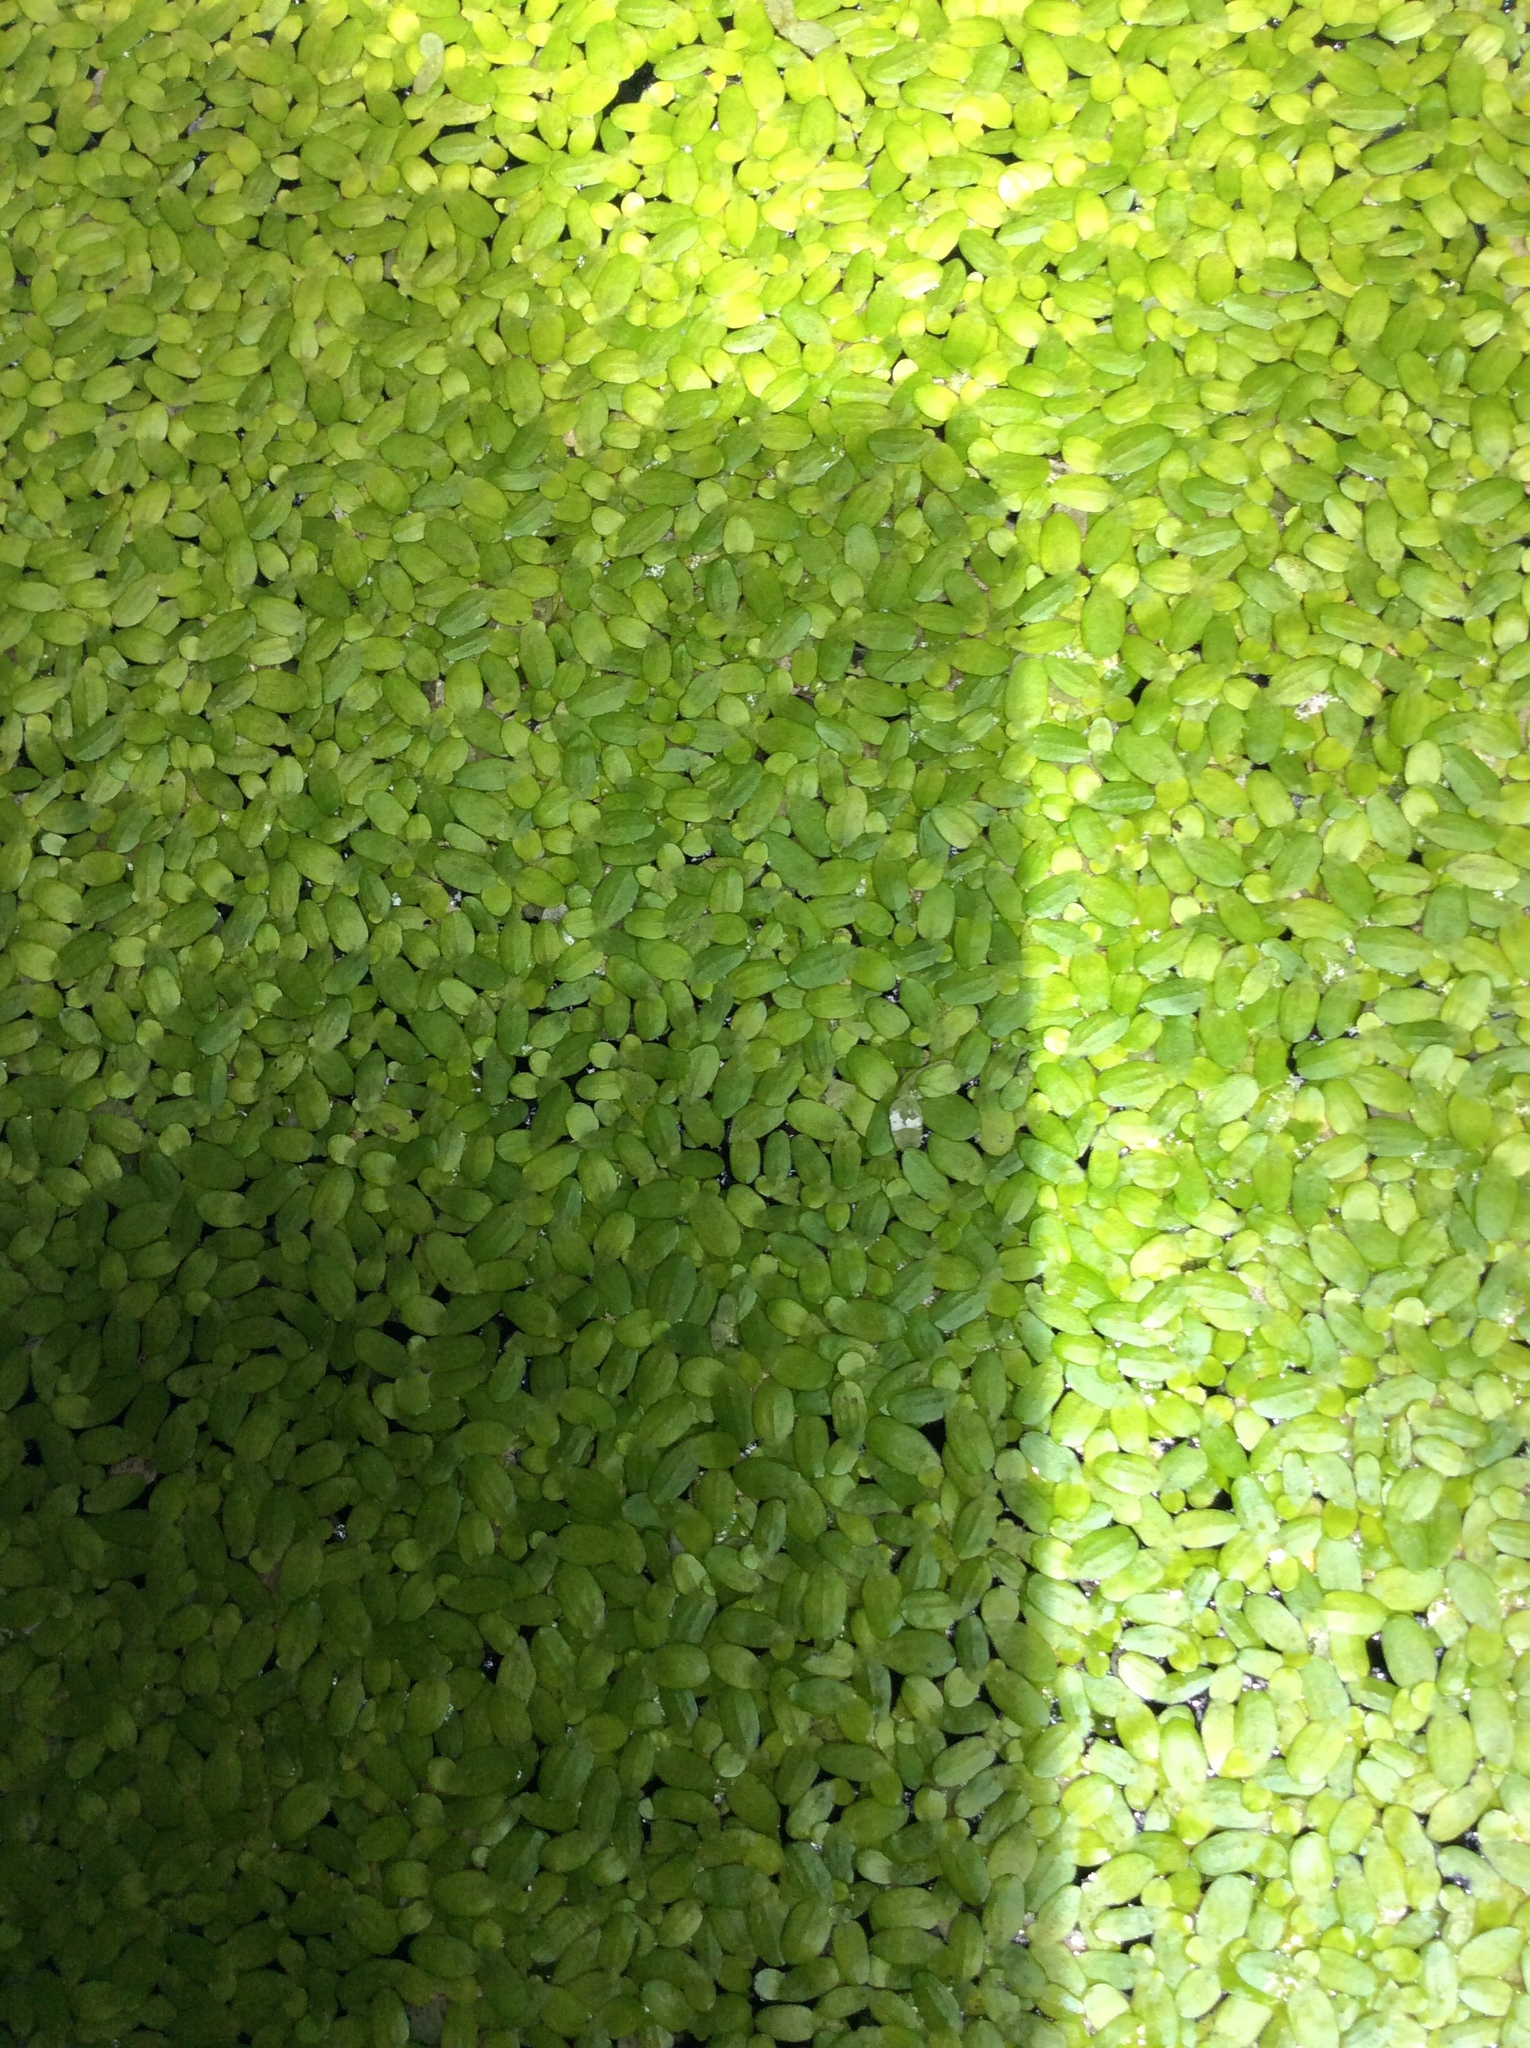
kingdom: Plantae
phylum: Tracheophyta
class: Liliopsida
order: Alismatales
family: Araceae
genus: Lemna
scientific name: Lemna minor
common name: Common duckweed
